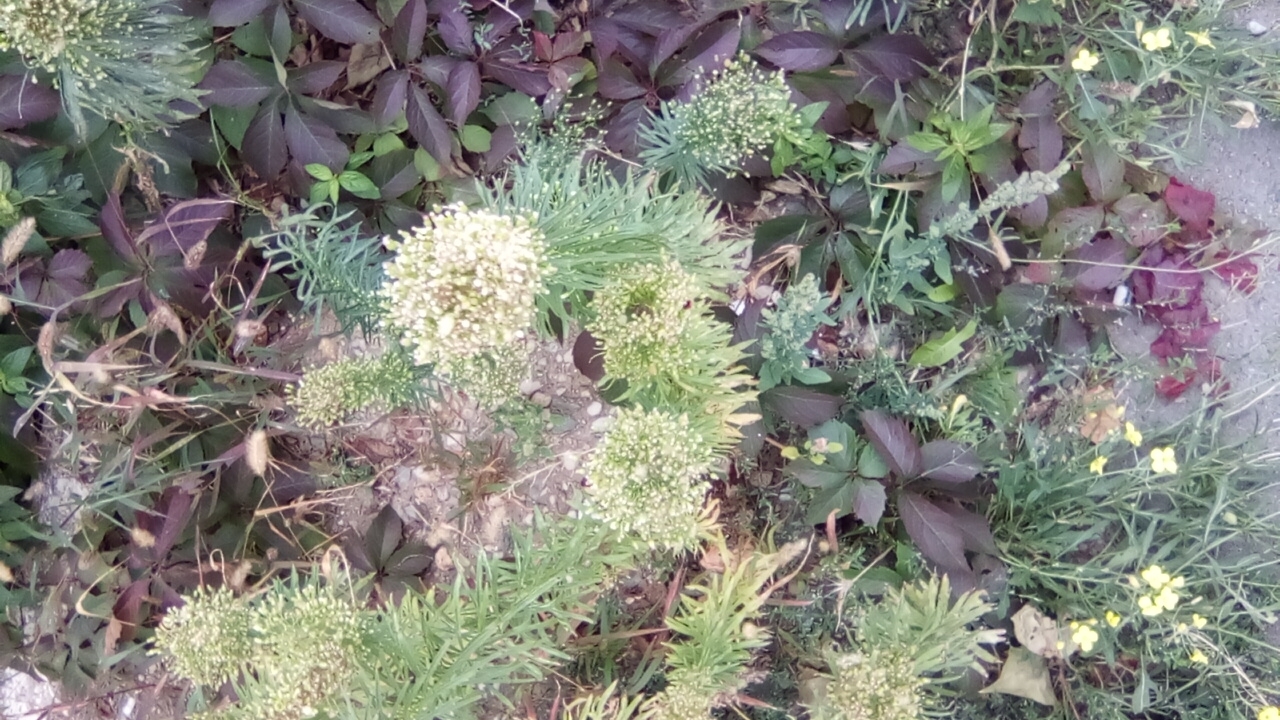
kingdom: Plantae
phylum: Tracheophyta
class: Magnoliopsida
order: Asterales
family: Asteraceae
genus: Erigeron
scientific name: Erigeron canadensis
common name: Canadian fleabane
